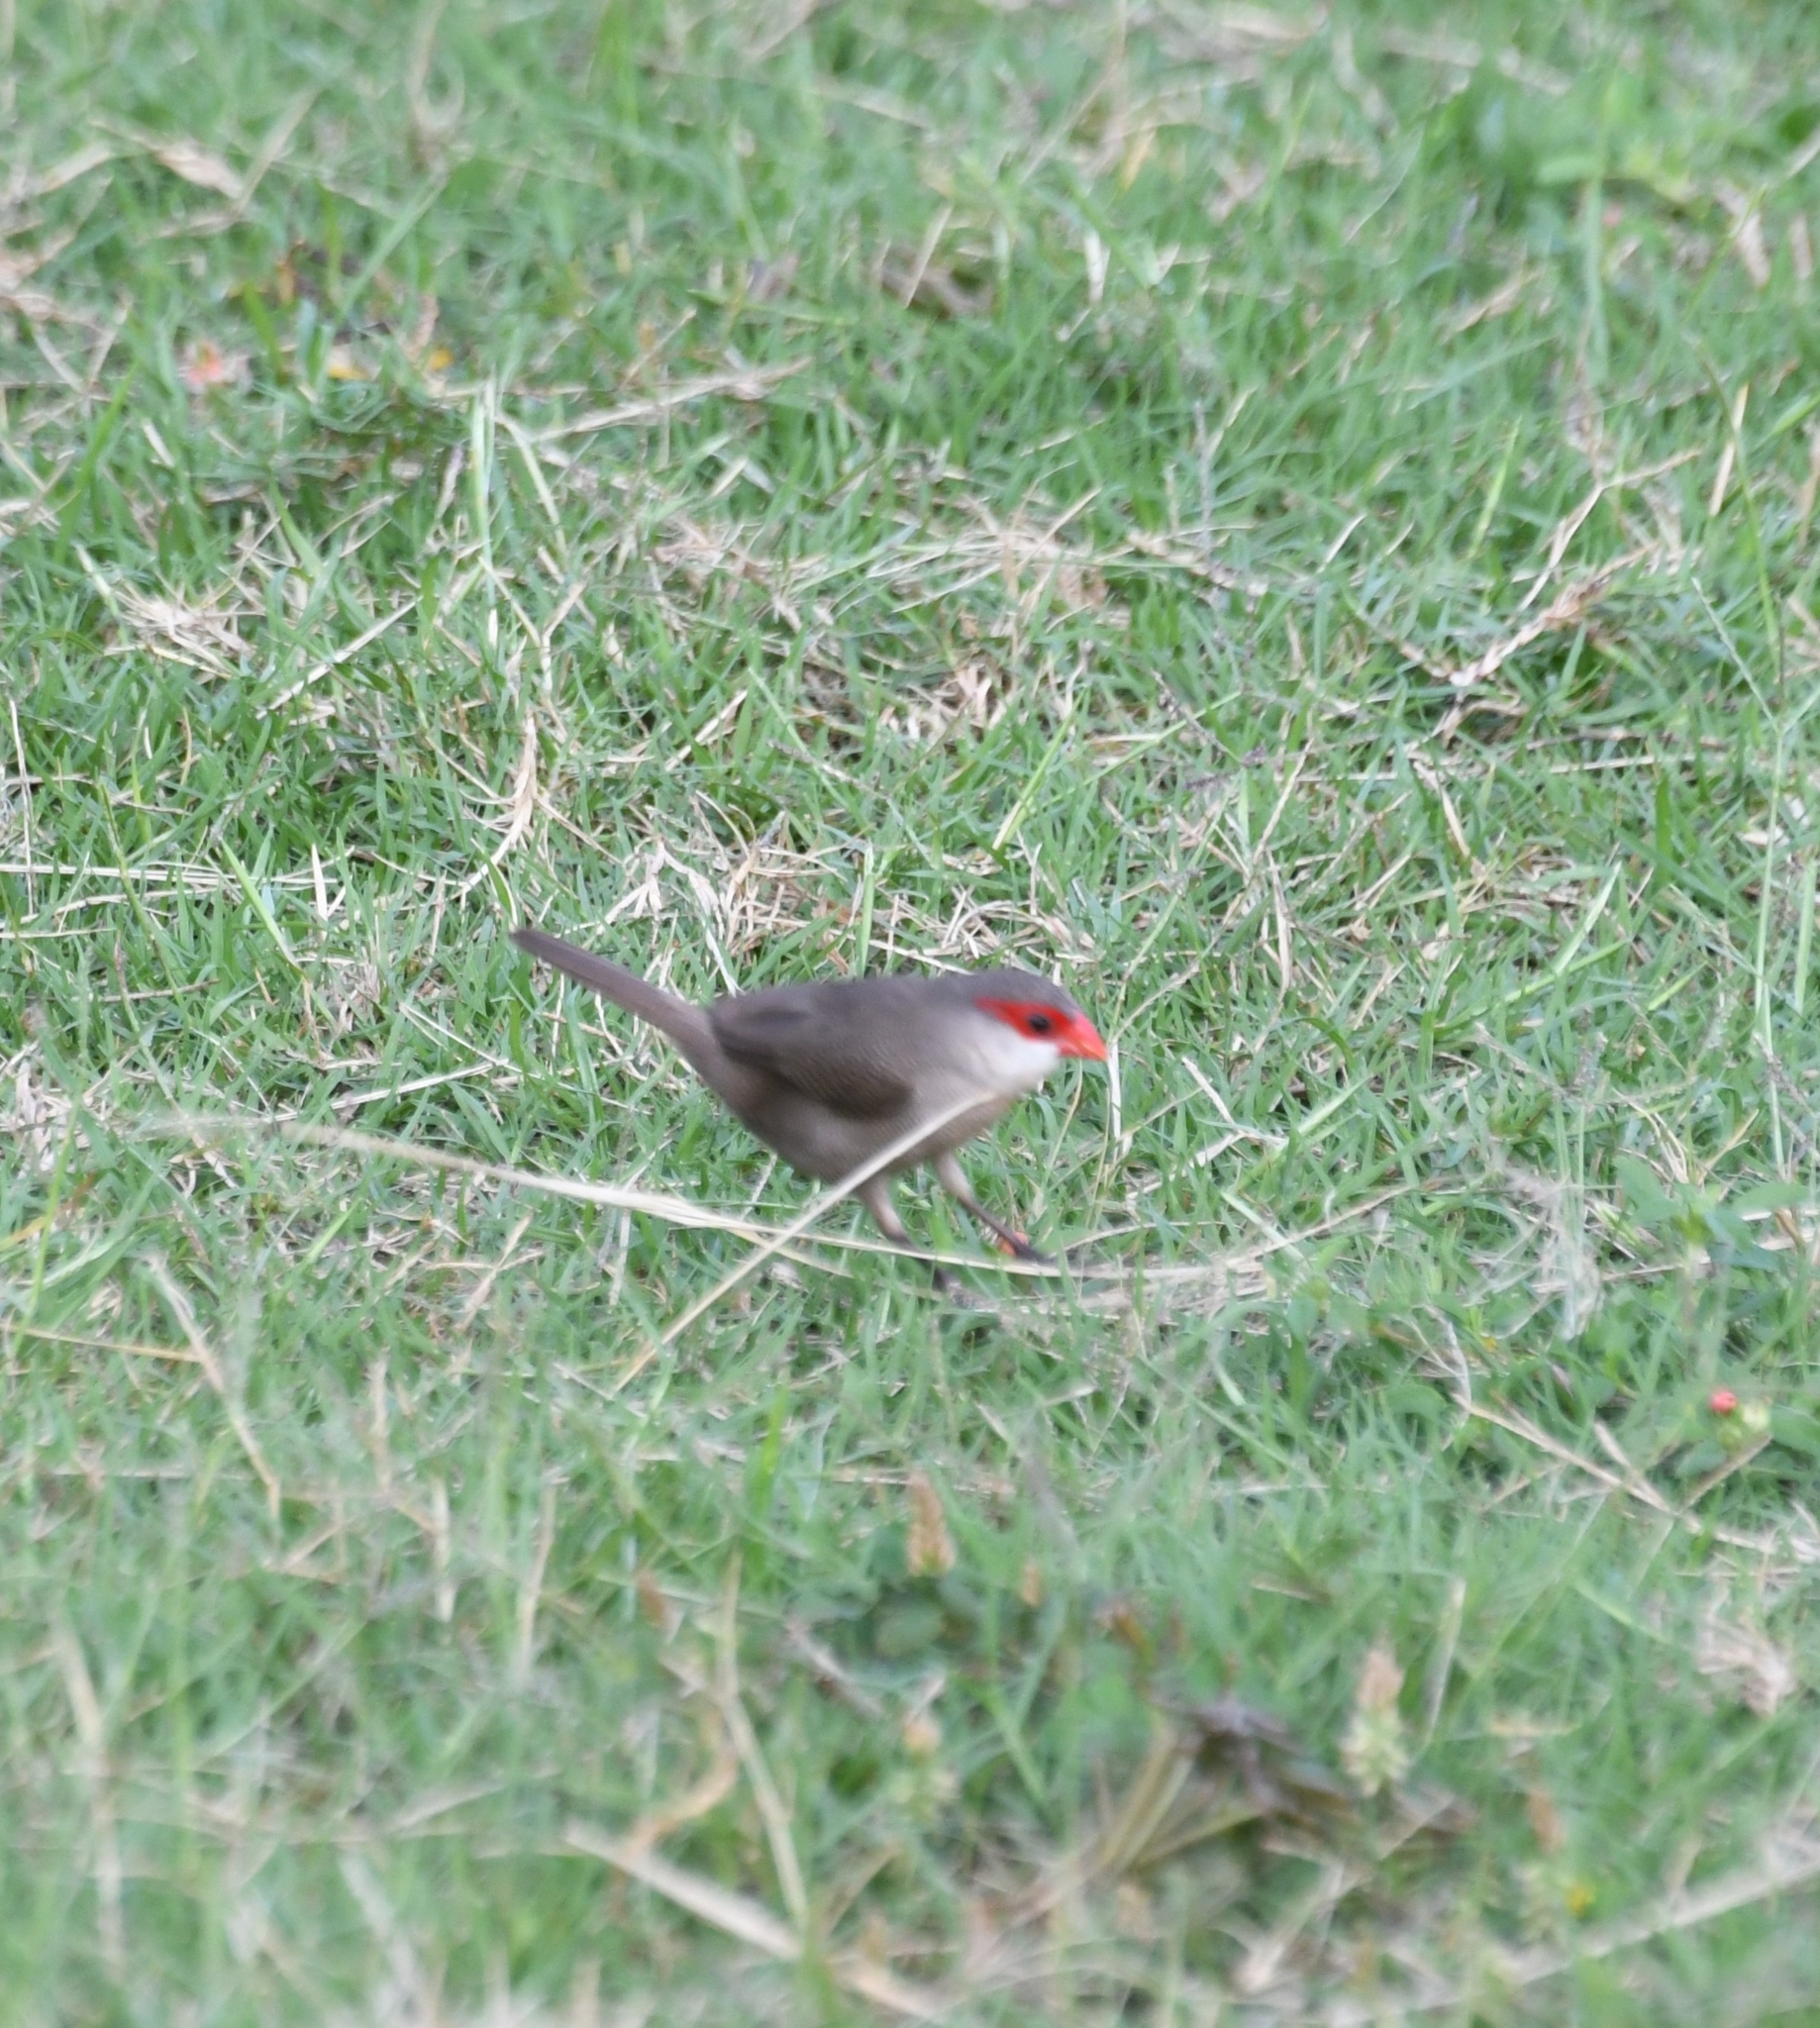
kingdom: Animalia
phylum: Chordata
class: Aves
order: Passeriformes
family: Estrildidae
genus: Estrilda
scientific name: Estrilda astrild
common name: Common waxbill
